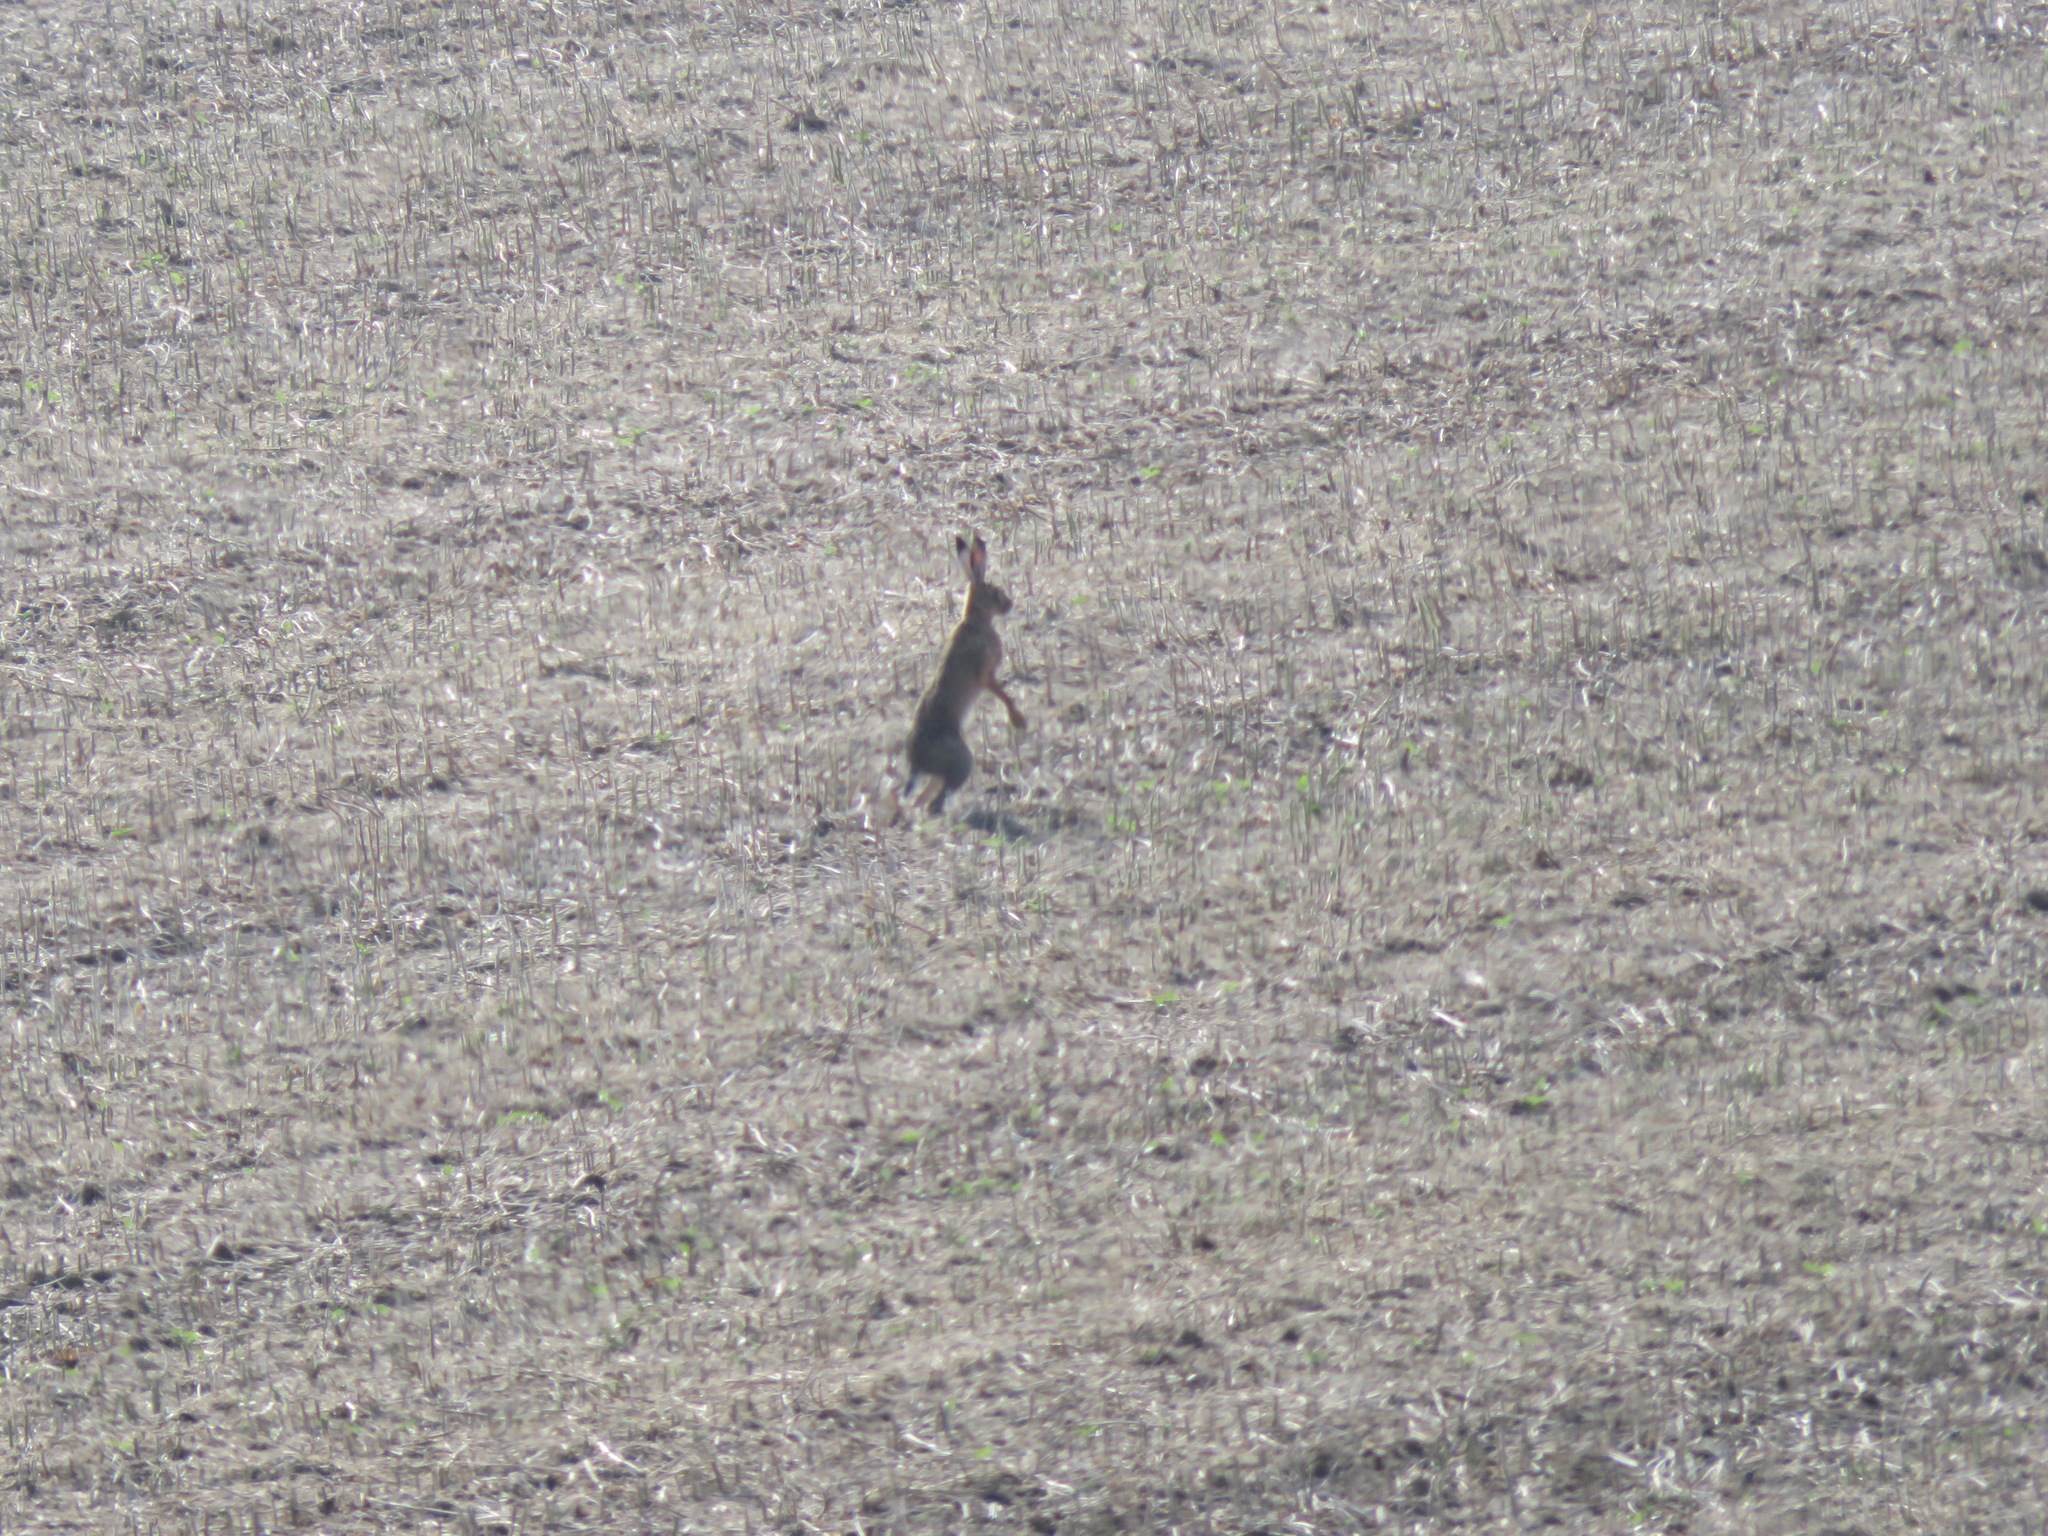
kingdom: Animalia
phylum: Chordata
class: Mammalia
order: Lagomorpha
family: Leporidae
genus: Lepus
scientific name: Lepus europaeus
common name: European hare
